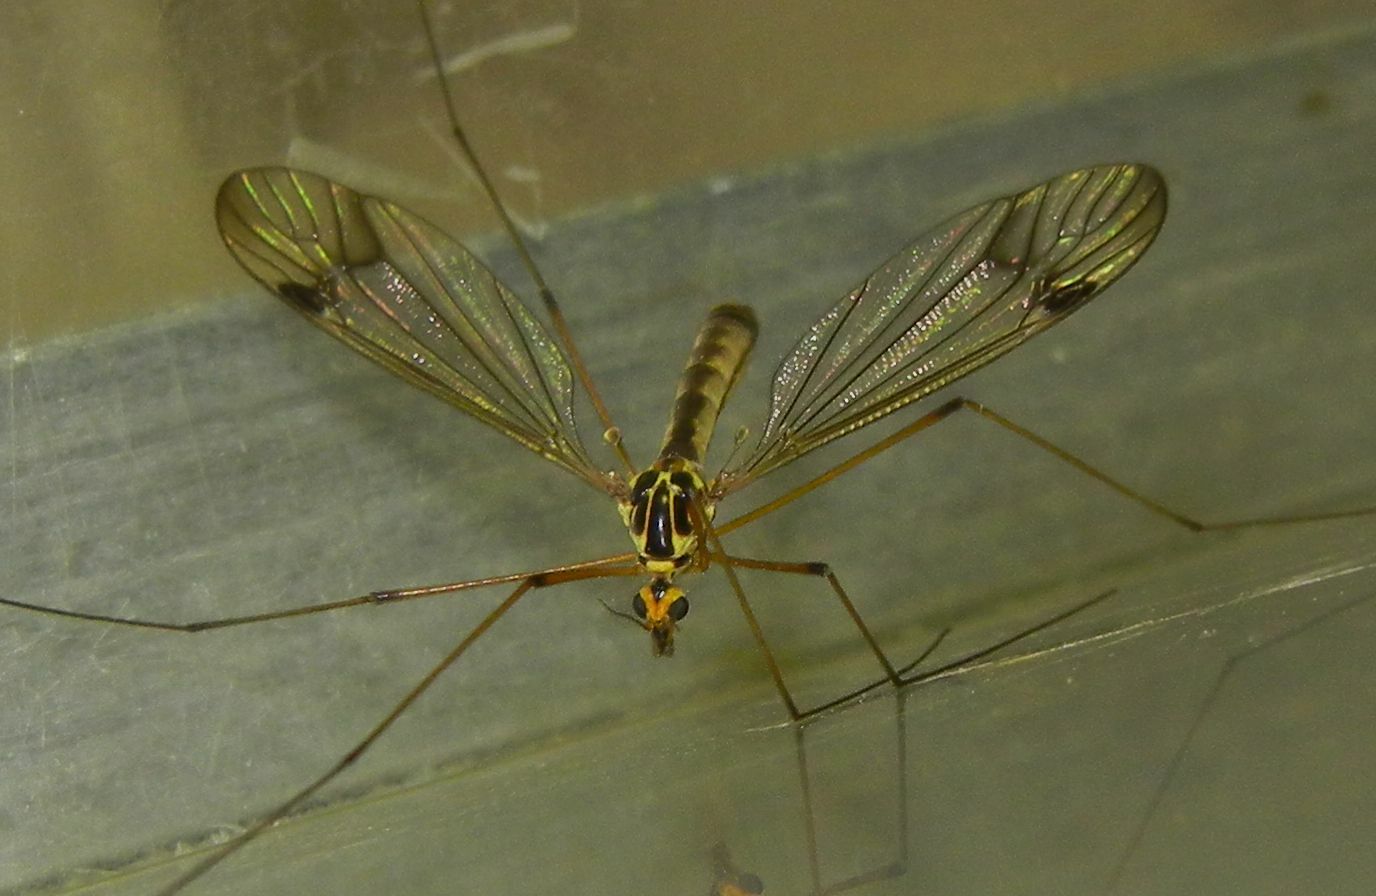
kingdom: Animalia
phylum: Arthropoda
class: Insecta
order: Diptera
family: Tipulidae
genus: Nephrotoma
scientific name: Nephrotoma quadrifaria
